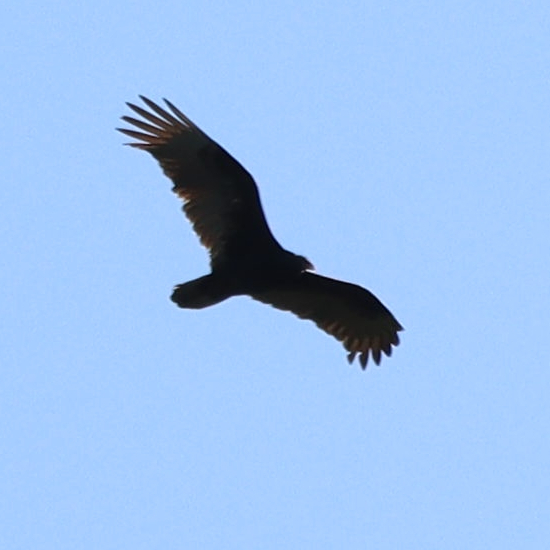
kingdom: Animalia
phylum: Chordata
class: Aves
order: Accipitriformes
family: Cathartidae
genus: Cathartes
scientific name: Cathartes aura
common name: Turkey vulture
